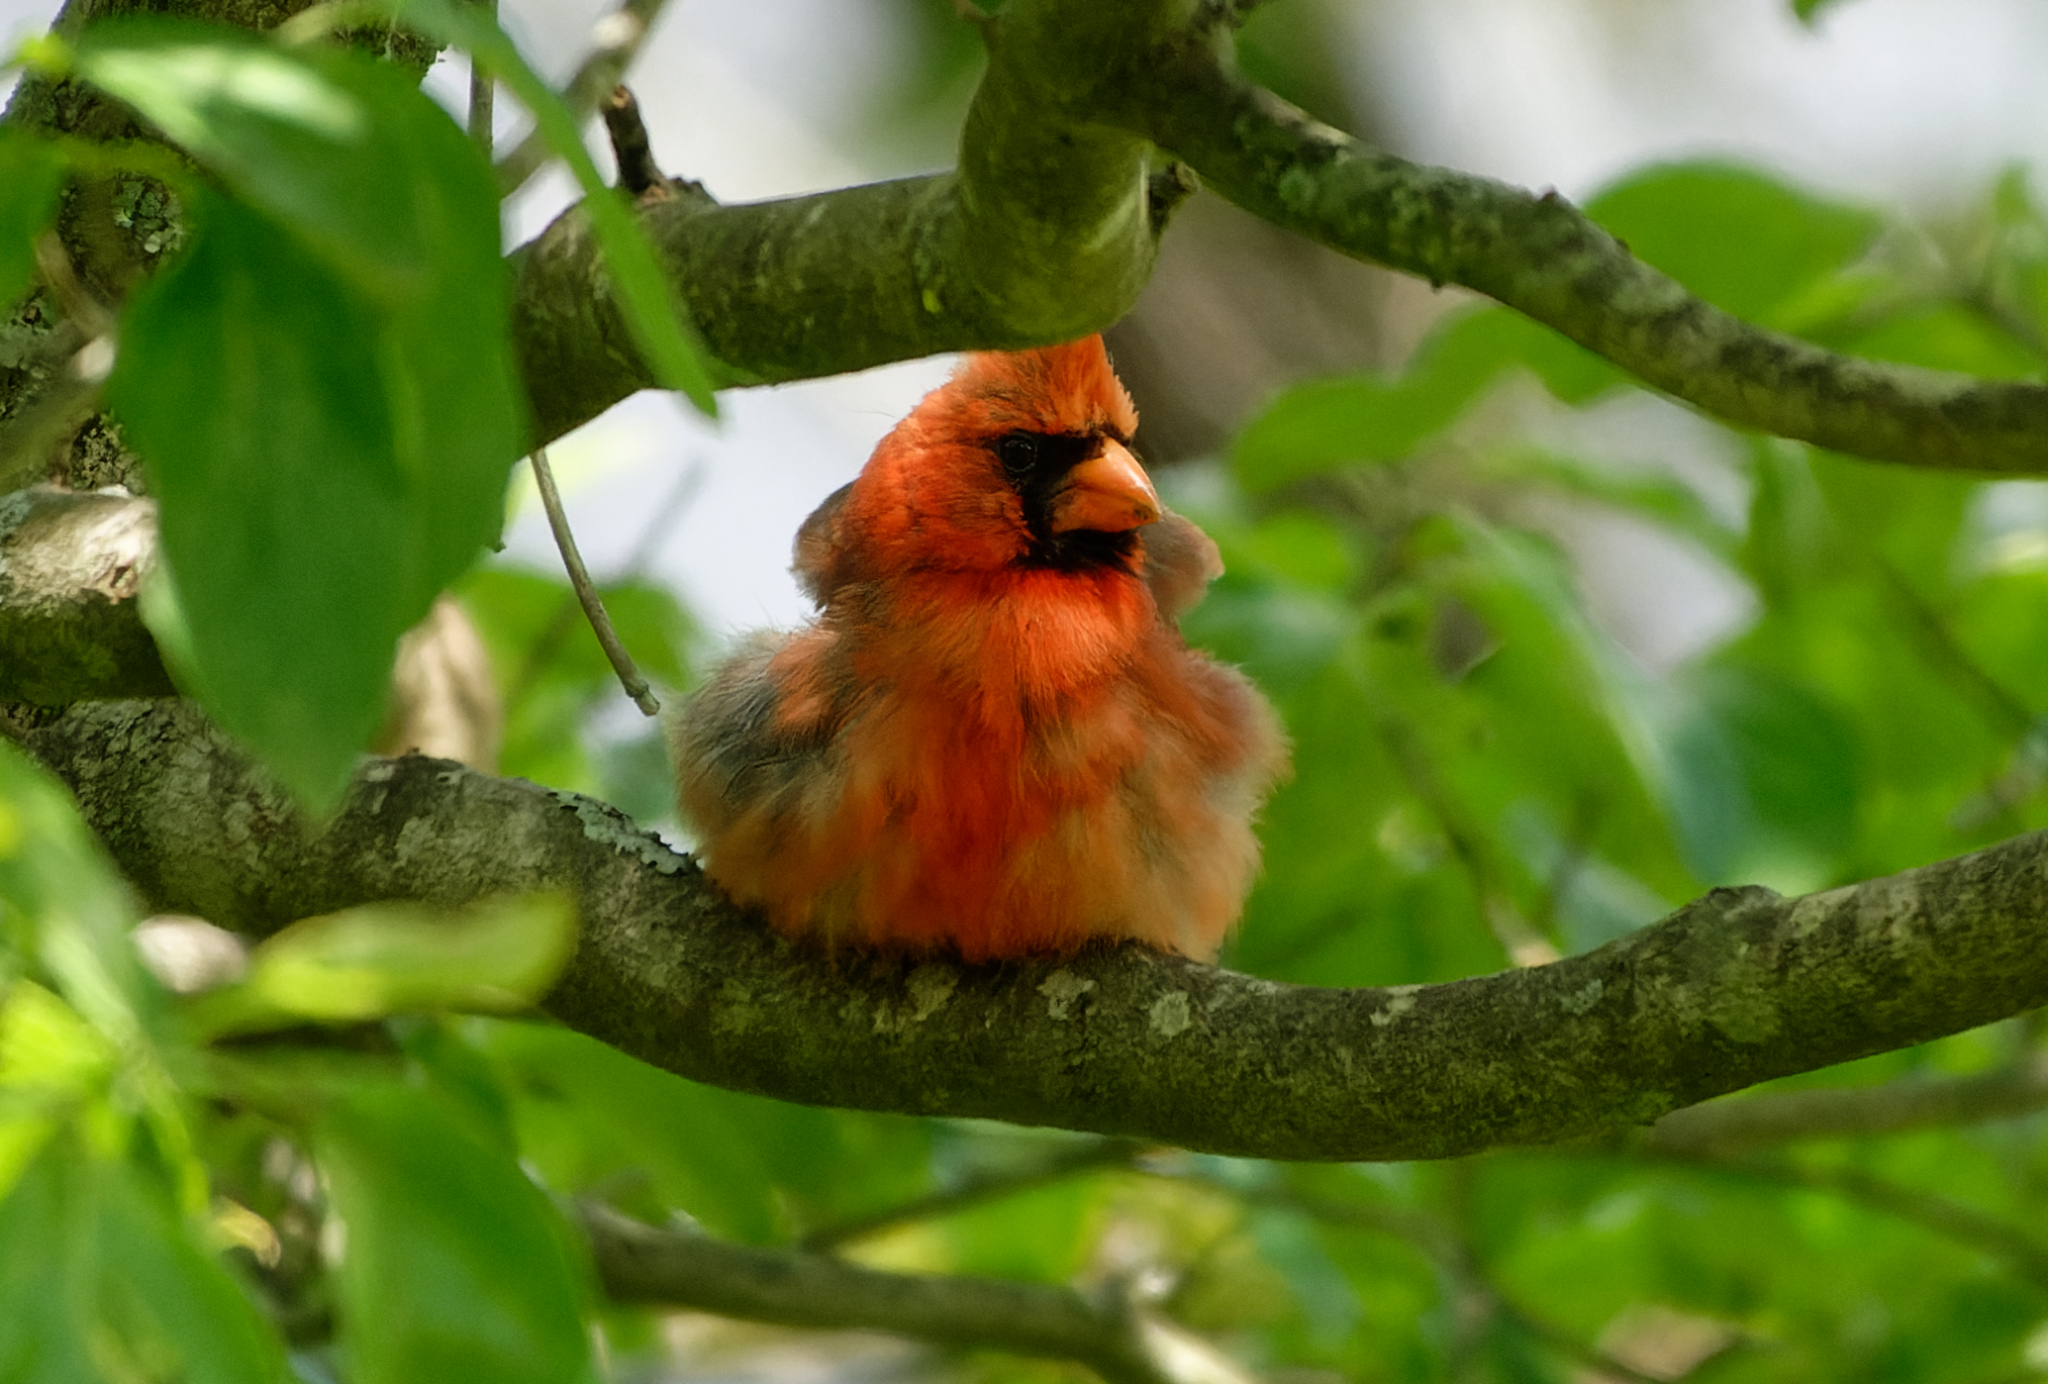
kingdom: Animalia
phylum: Chordata
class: Aves
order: Passeriformes
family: Cardinalidae
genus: Cardinalis
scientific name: Cardinalis cardinalis
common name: Northern cardinal
